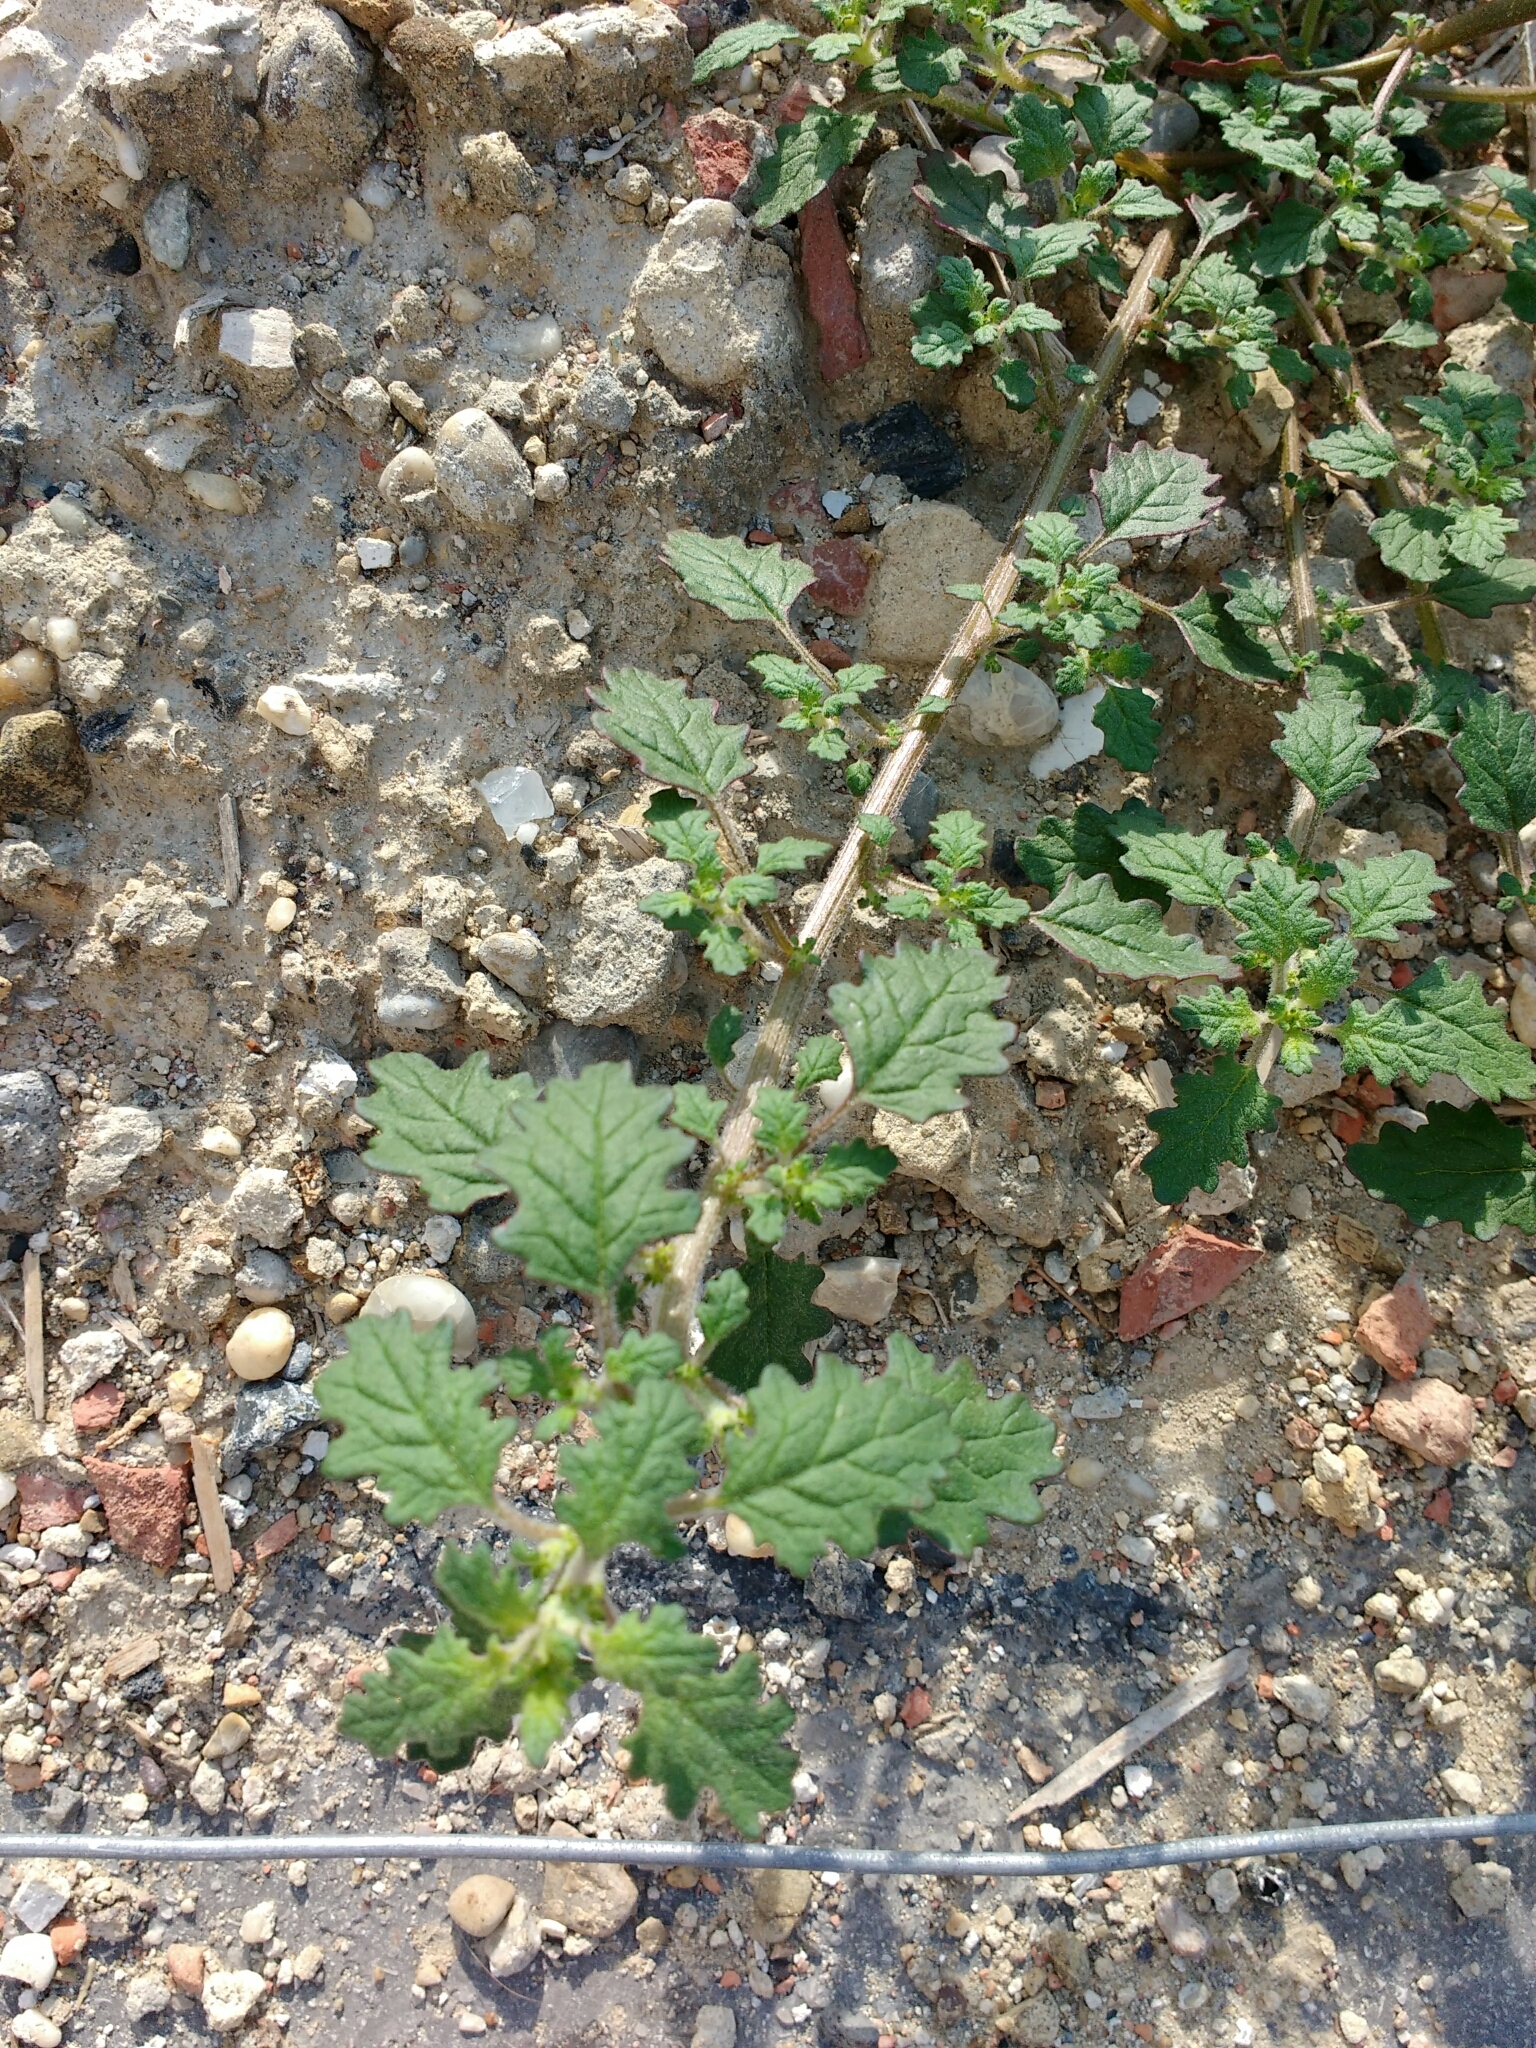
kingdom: Plantae
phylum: Tracheophyta
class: Magnoliopsida
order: Caryophyllales
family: Amaranthaceae
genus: Dysphania
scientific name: Dysphania pumilio
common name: Clammy goosefoot
